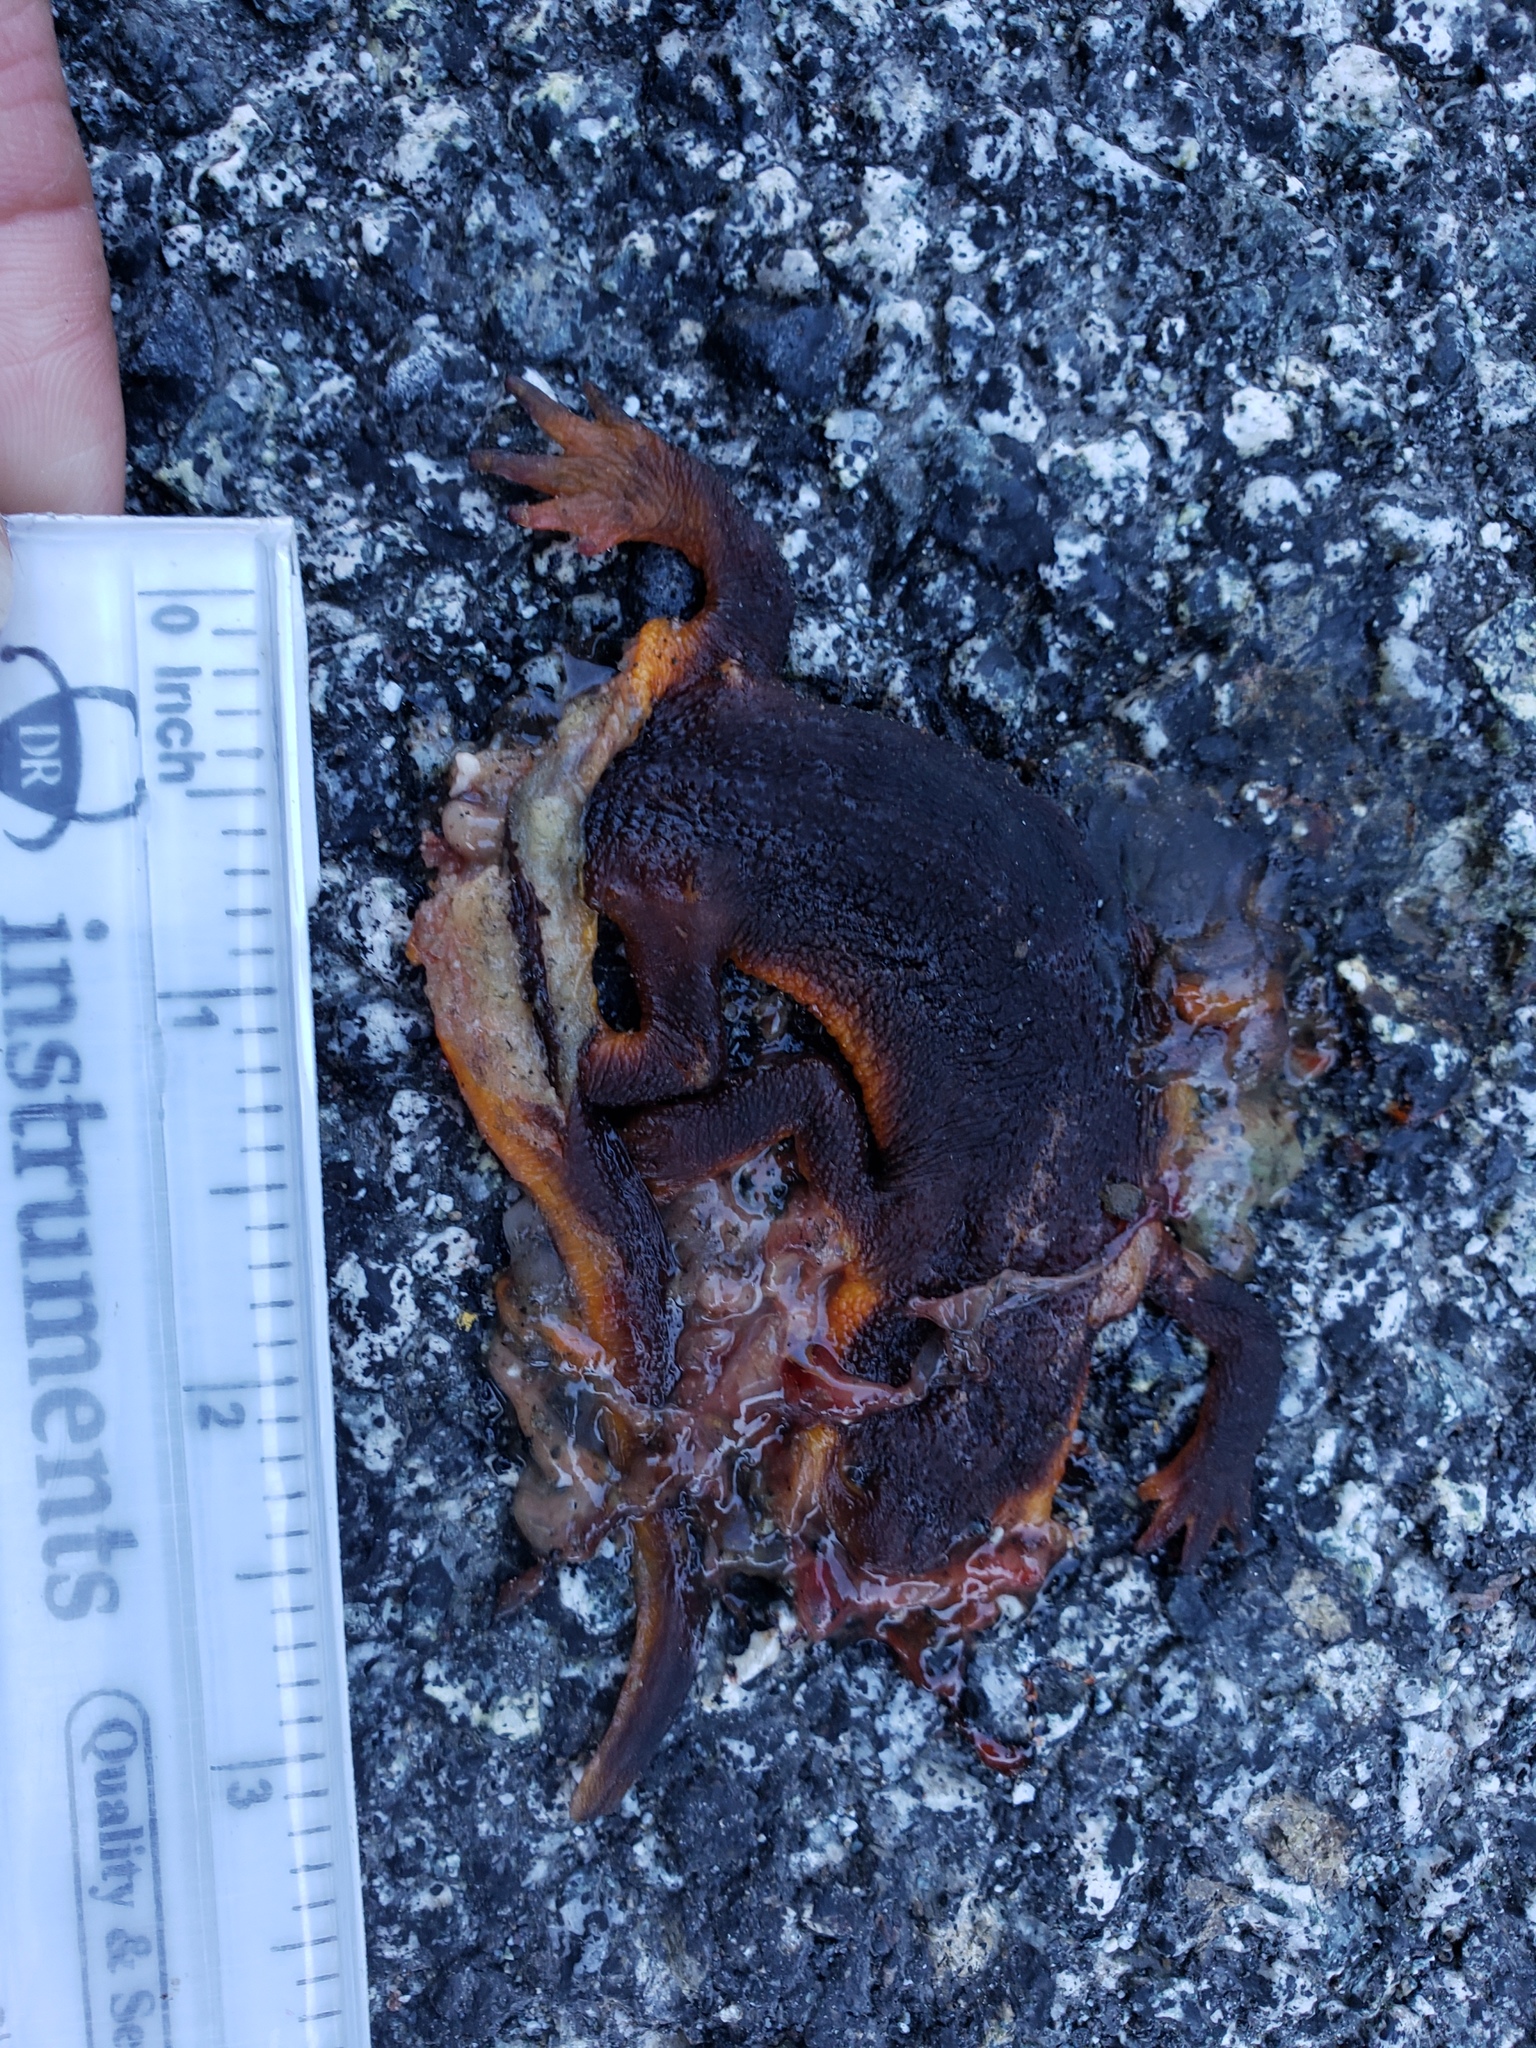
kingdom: Animalia
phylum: Chordata
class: Amphibia
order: Caudata
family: Salamandridae
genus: Taricha
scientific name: Taricha
